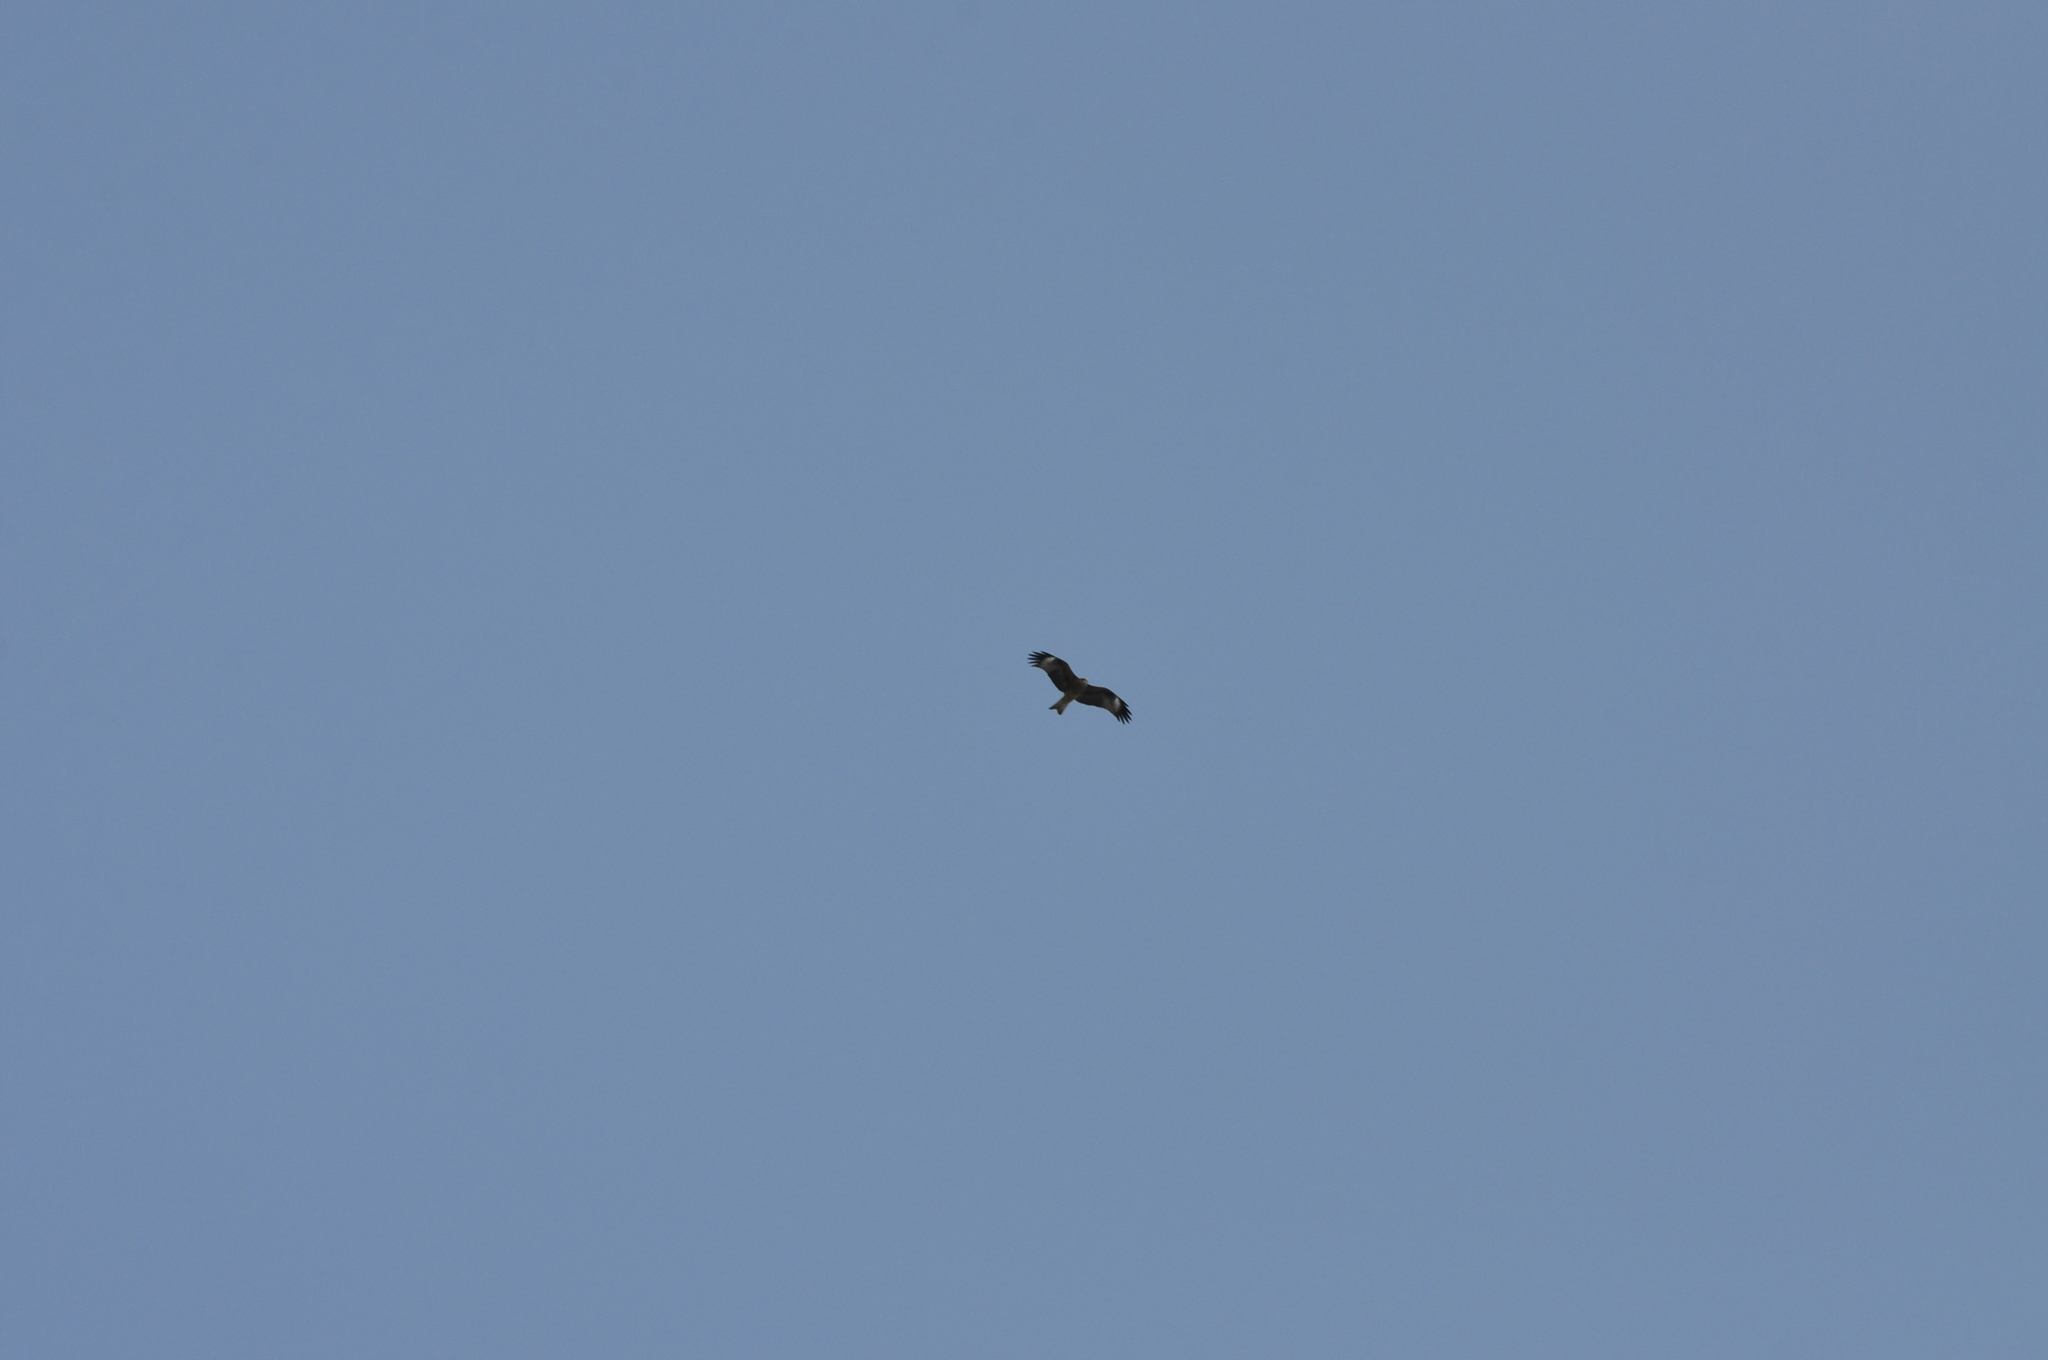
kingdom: Animalia
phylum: Chordata
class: Aves
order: Accipitriformes
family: Accipitridae
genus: Milvus
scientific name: Milvus migrans
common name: Black kite
